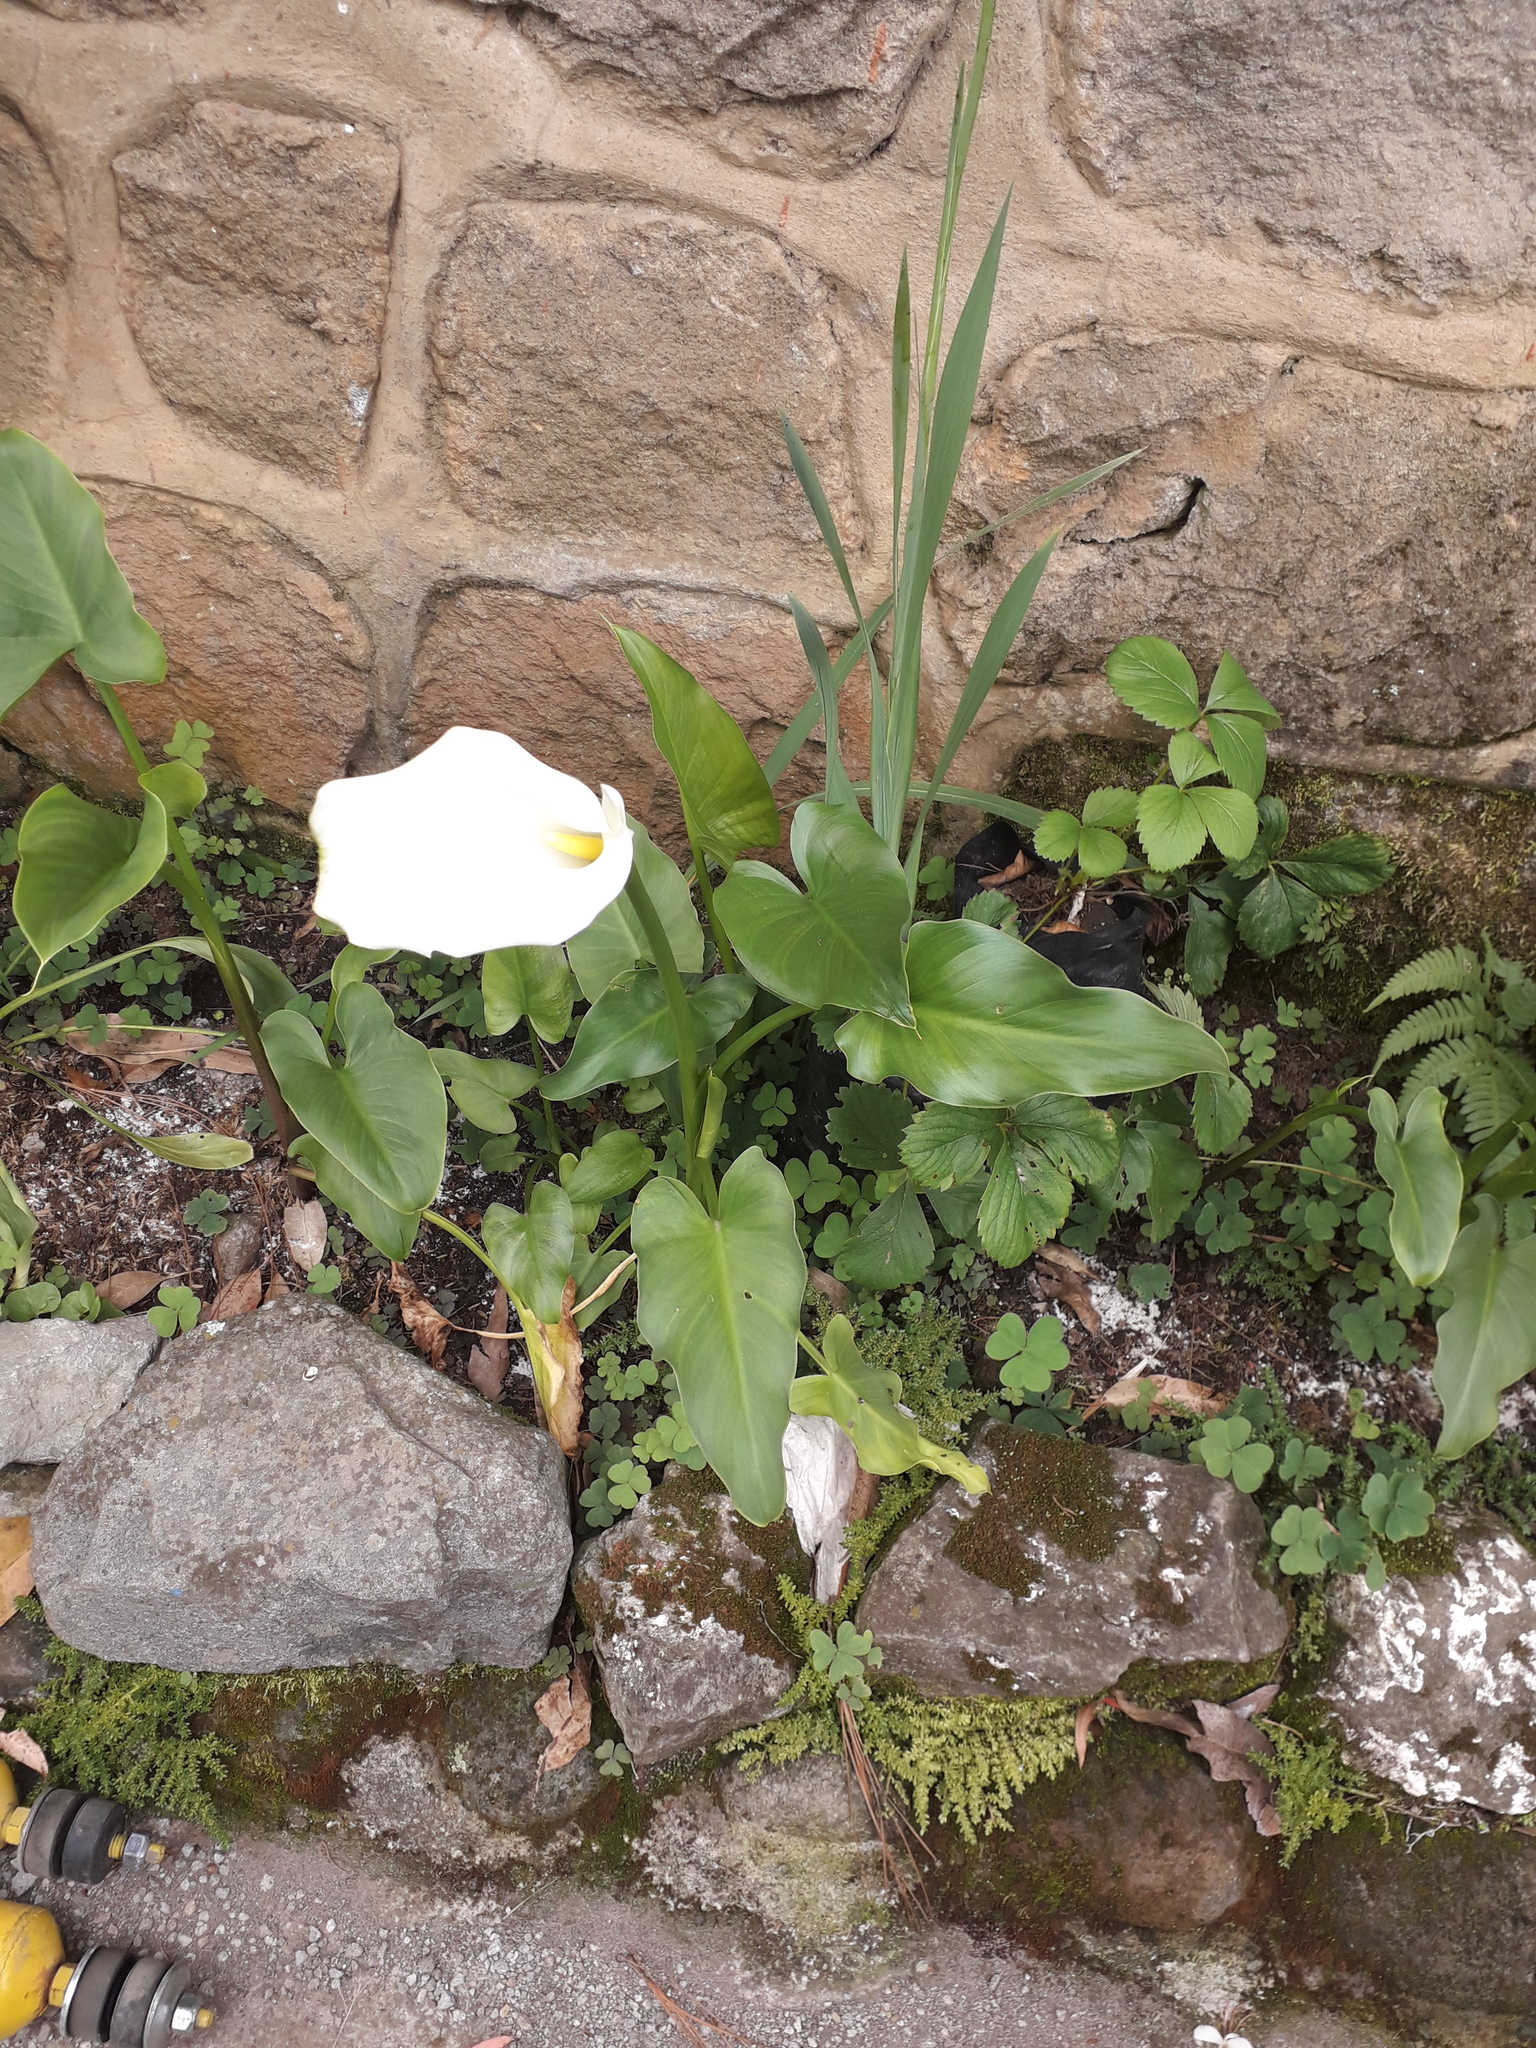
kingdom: Plantae
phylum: Tracheophyta
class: Liliopsida
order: Alismatales
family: Araceae
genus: Zantedeschia
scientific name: Zantedeschia aethiopica
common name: Altar-lily
